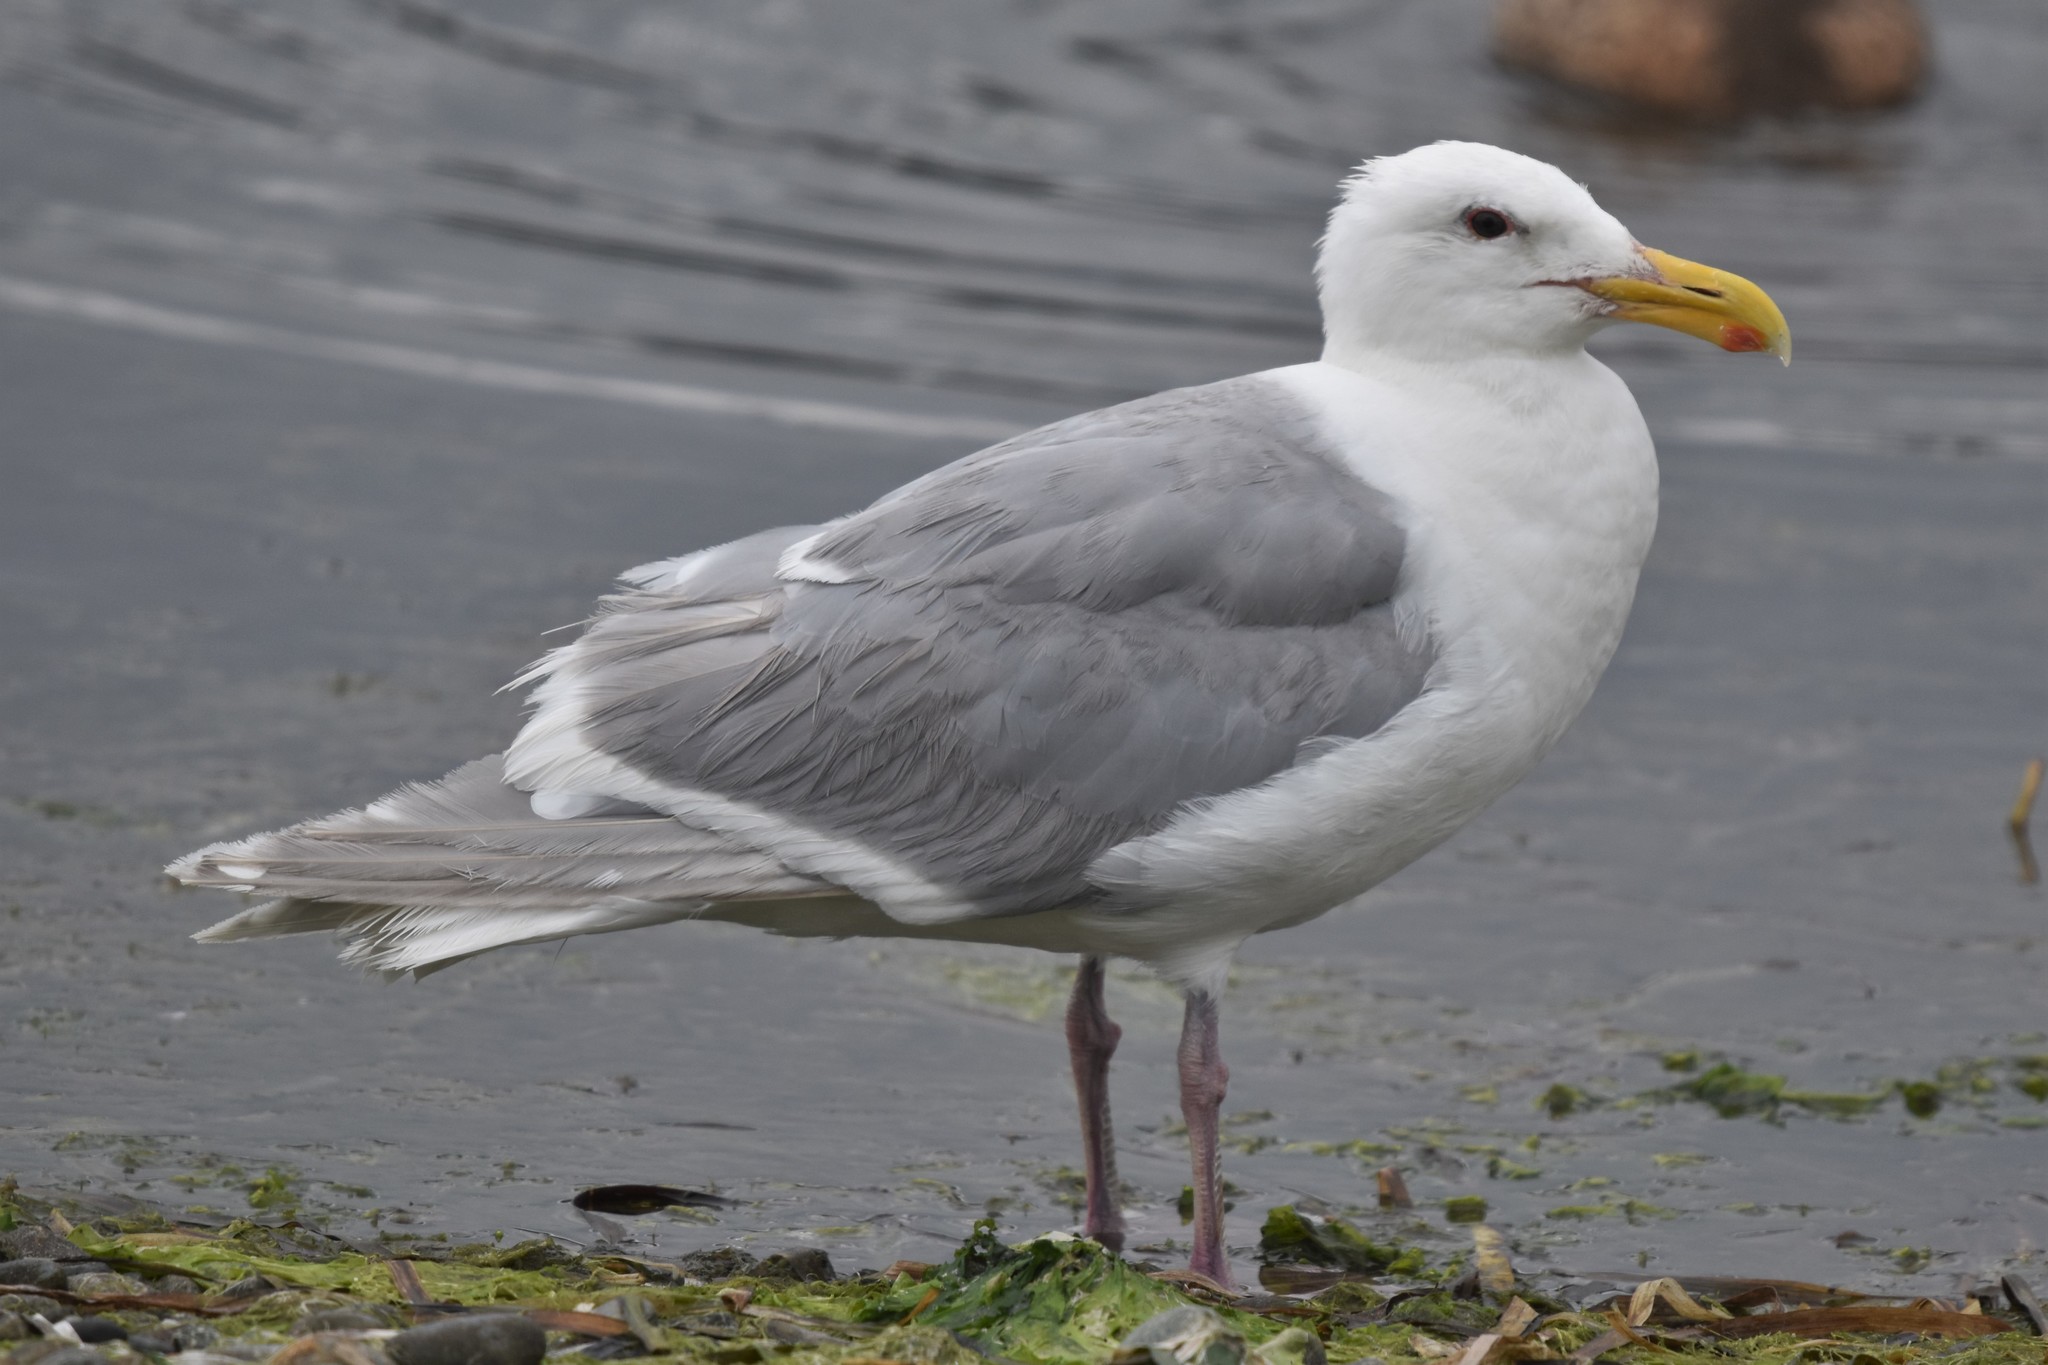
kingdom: Animalia
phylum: Chordata
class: Aves
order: Charadriiformes
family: Laridae
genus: Larus
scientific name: Larus glaucescens
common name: Glaucous-winged gull
